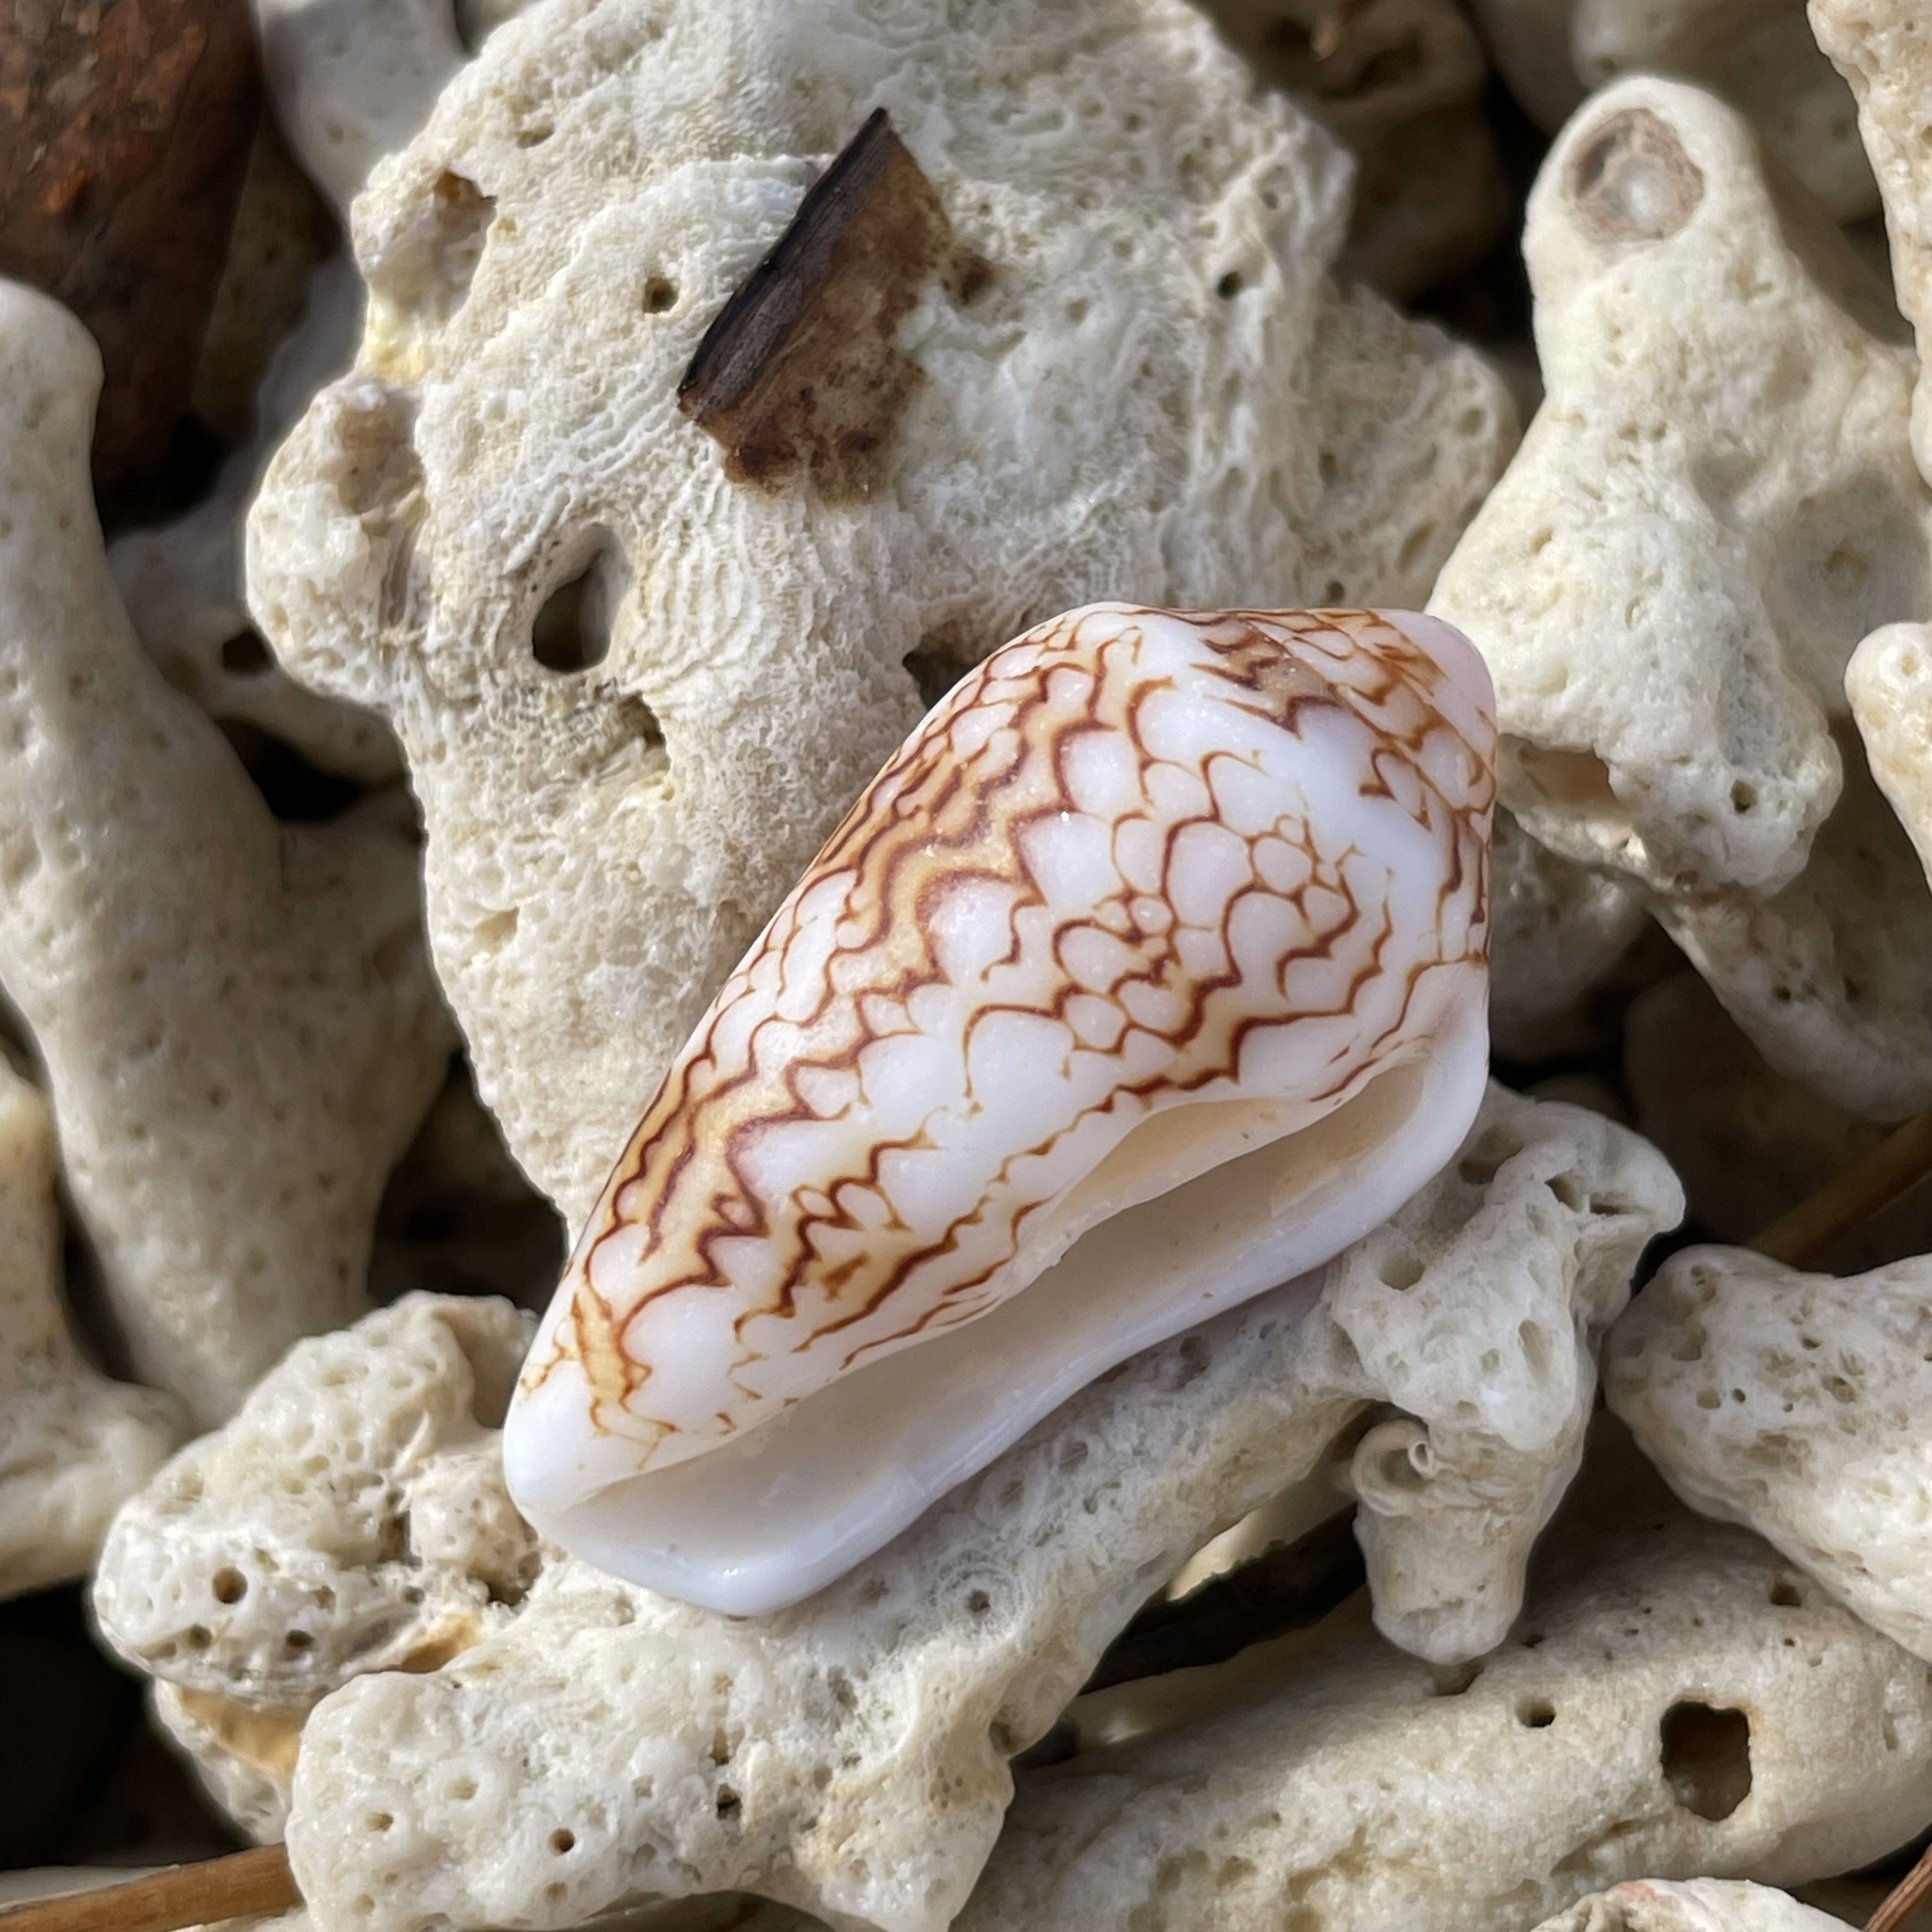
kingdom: Animalia
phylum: Mollusca
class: Gastropoda
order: Neogastropoda
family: Conidae
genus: Conus
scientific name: Conus textile
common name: Cloth-of-gold cone
